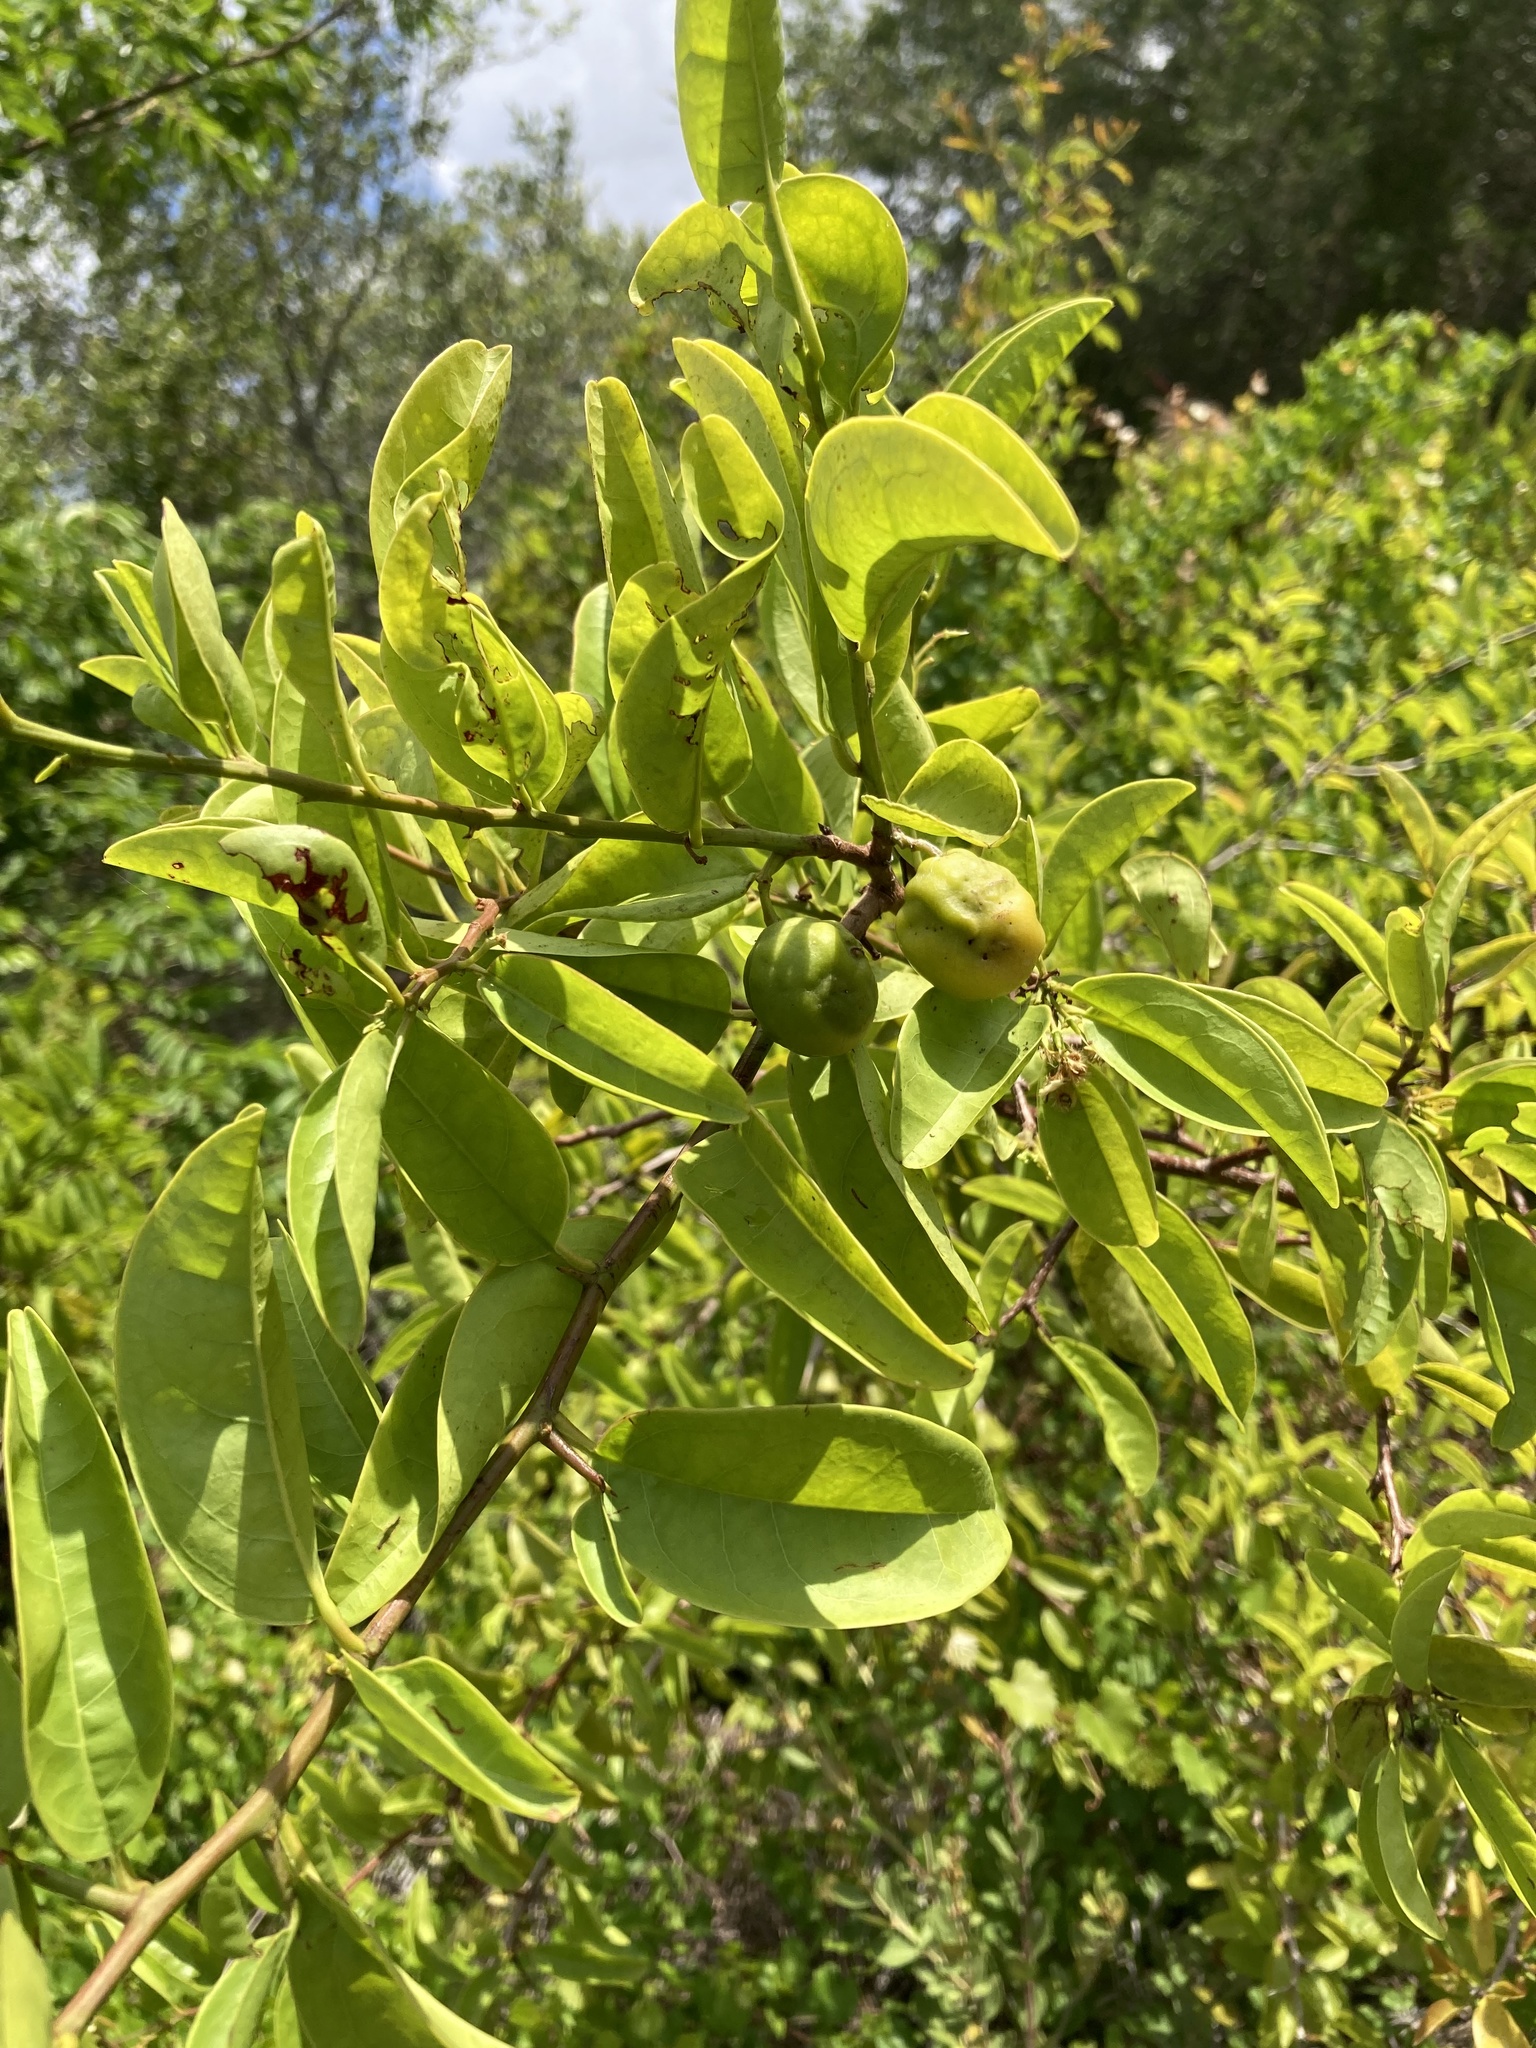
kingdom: Plantae
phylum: Tracheophyta
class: Magnoliopsida
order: Santalales
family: Ximeniaceae
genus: Ximenia
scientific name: Ximenia americana
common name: Tallowwood
